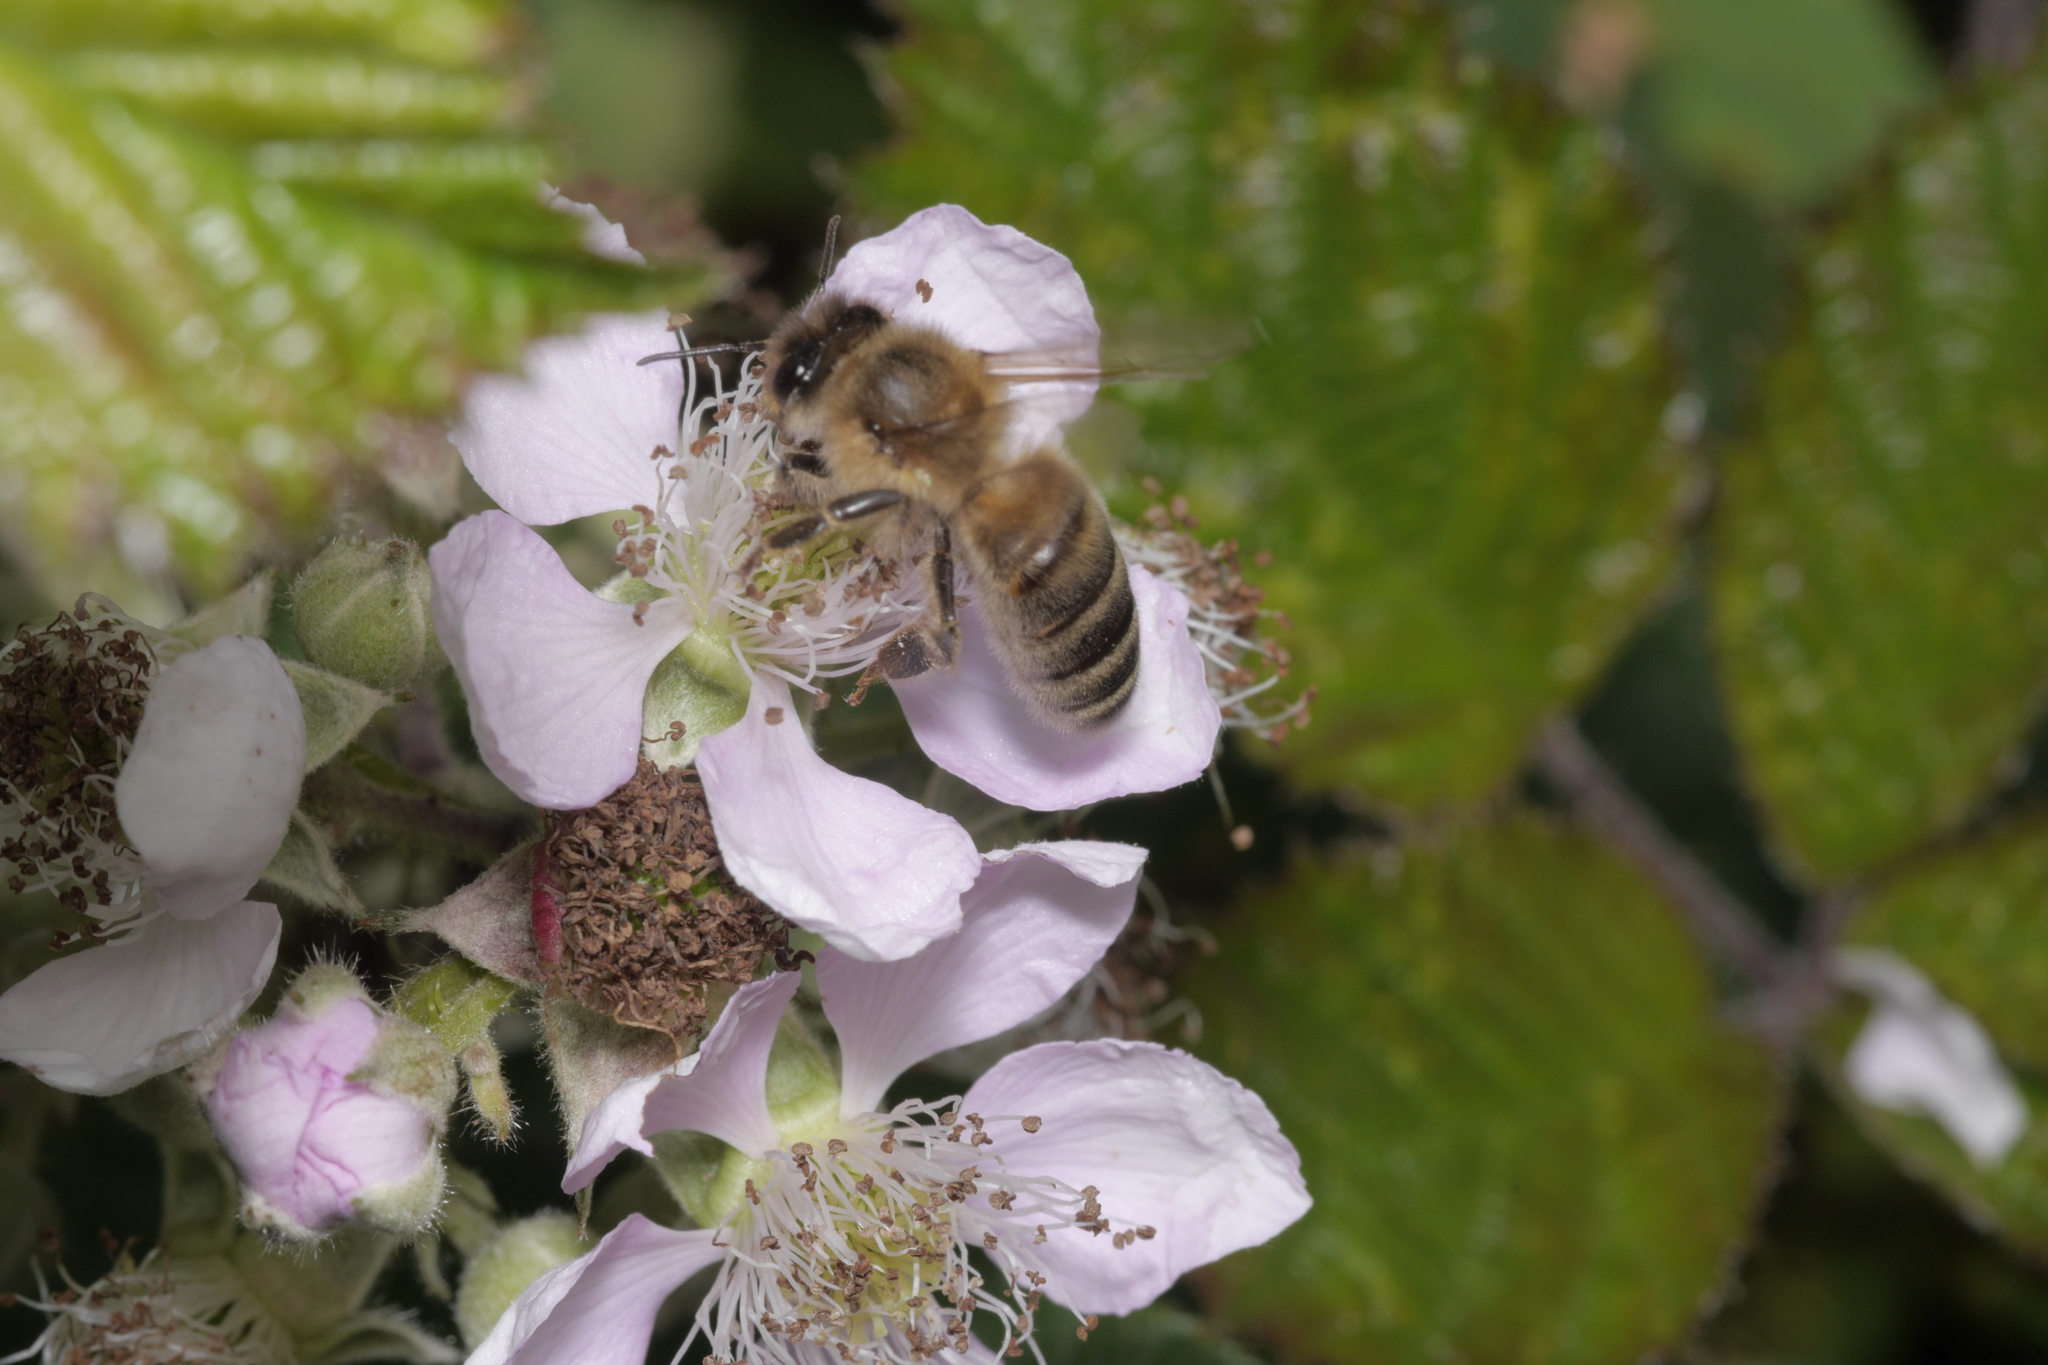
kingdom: Animalia
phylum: Arthropoda
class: Insecta
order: Hymenoptera
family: Apidae
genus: Apis
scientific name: Apis mellifera
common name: Honey bee
